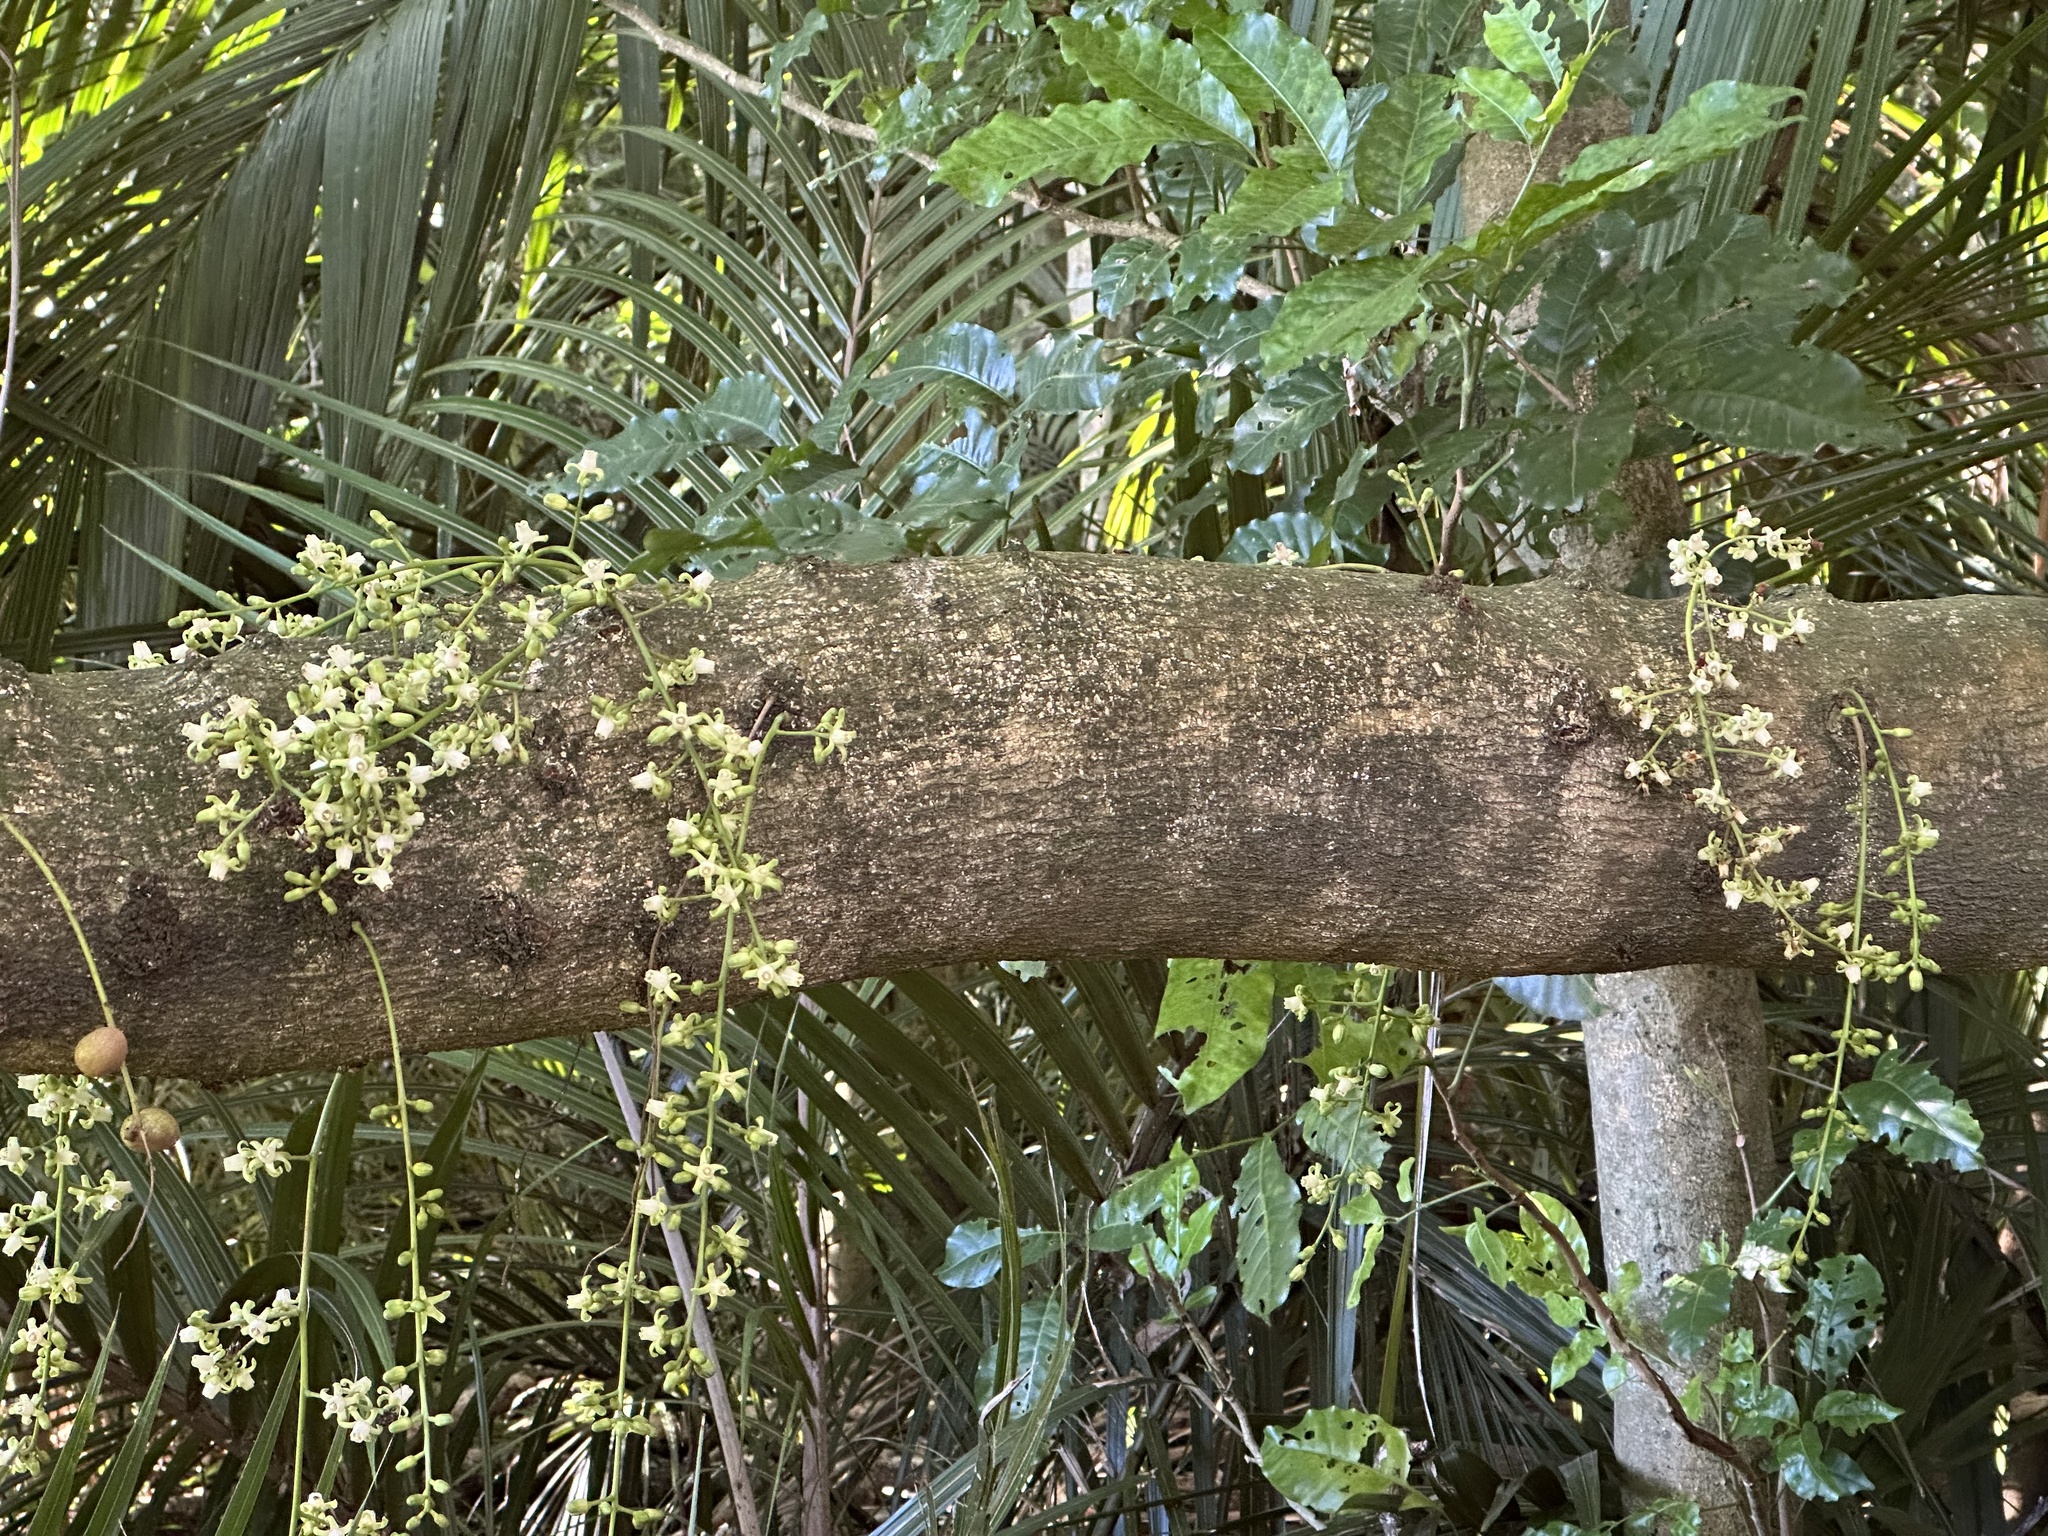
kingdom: Plantae
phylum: Tracheophyta
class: Magnoliopsida
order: Sapindales
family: Meliaceae
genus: Didymocheton
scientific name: Didymocheton spectabilis
